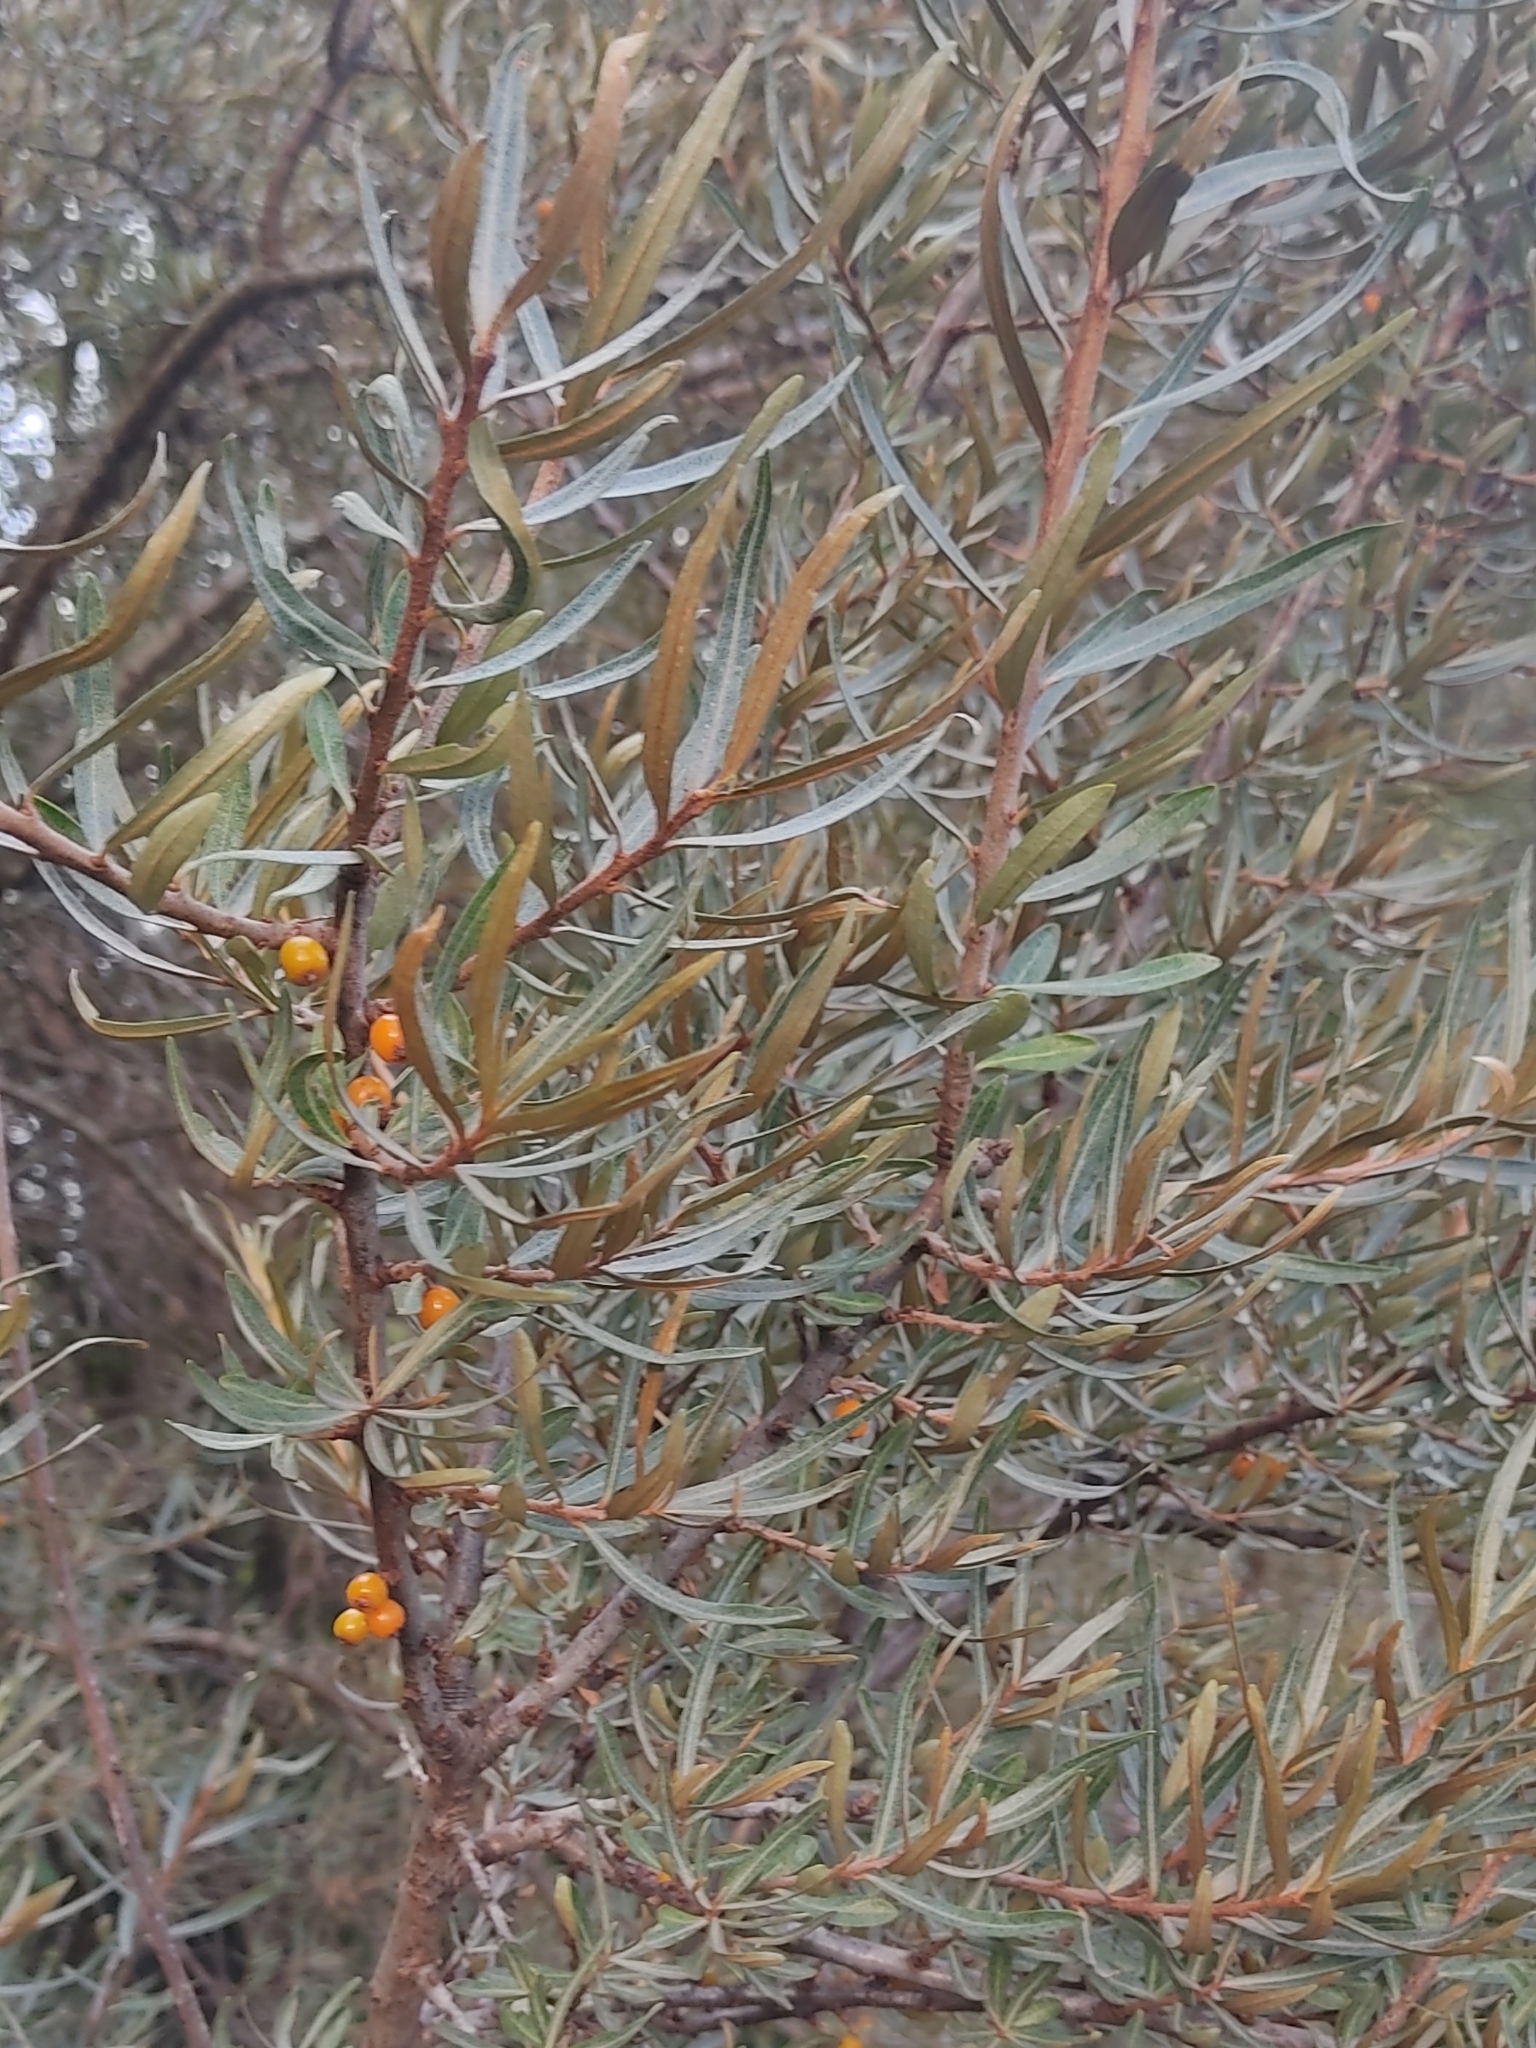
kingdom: Plantae
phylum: Tracheophyta
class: Magnoliopsida
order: Rosales
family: Elaeagnaceae
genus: Hippophae
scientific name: Hippophae rhamnoides
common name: Sea-buckthorn
